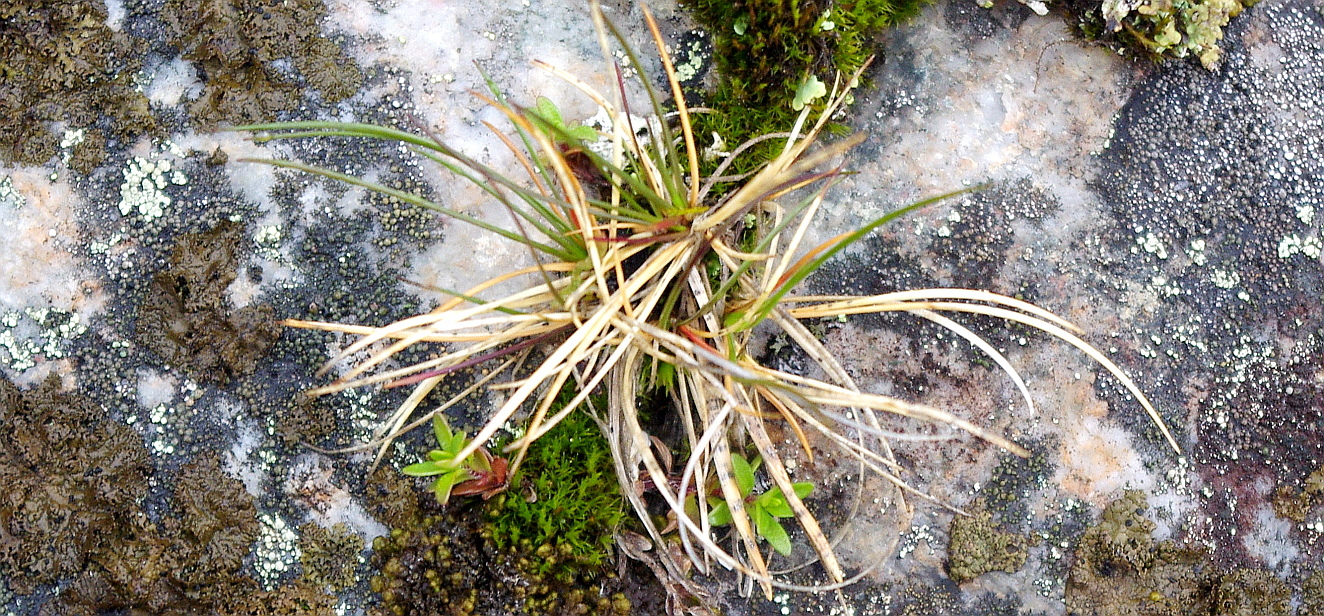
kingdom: Plantae
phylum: Tracheophyta
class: Liliopsida
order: Poales
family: Cyperaceae
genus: Carex
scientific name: Carex
